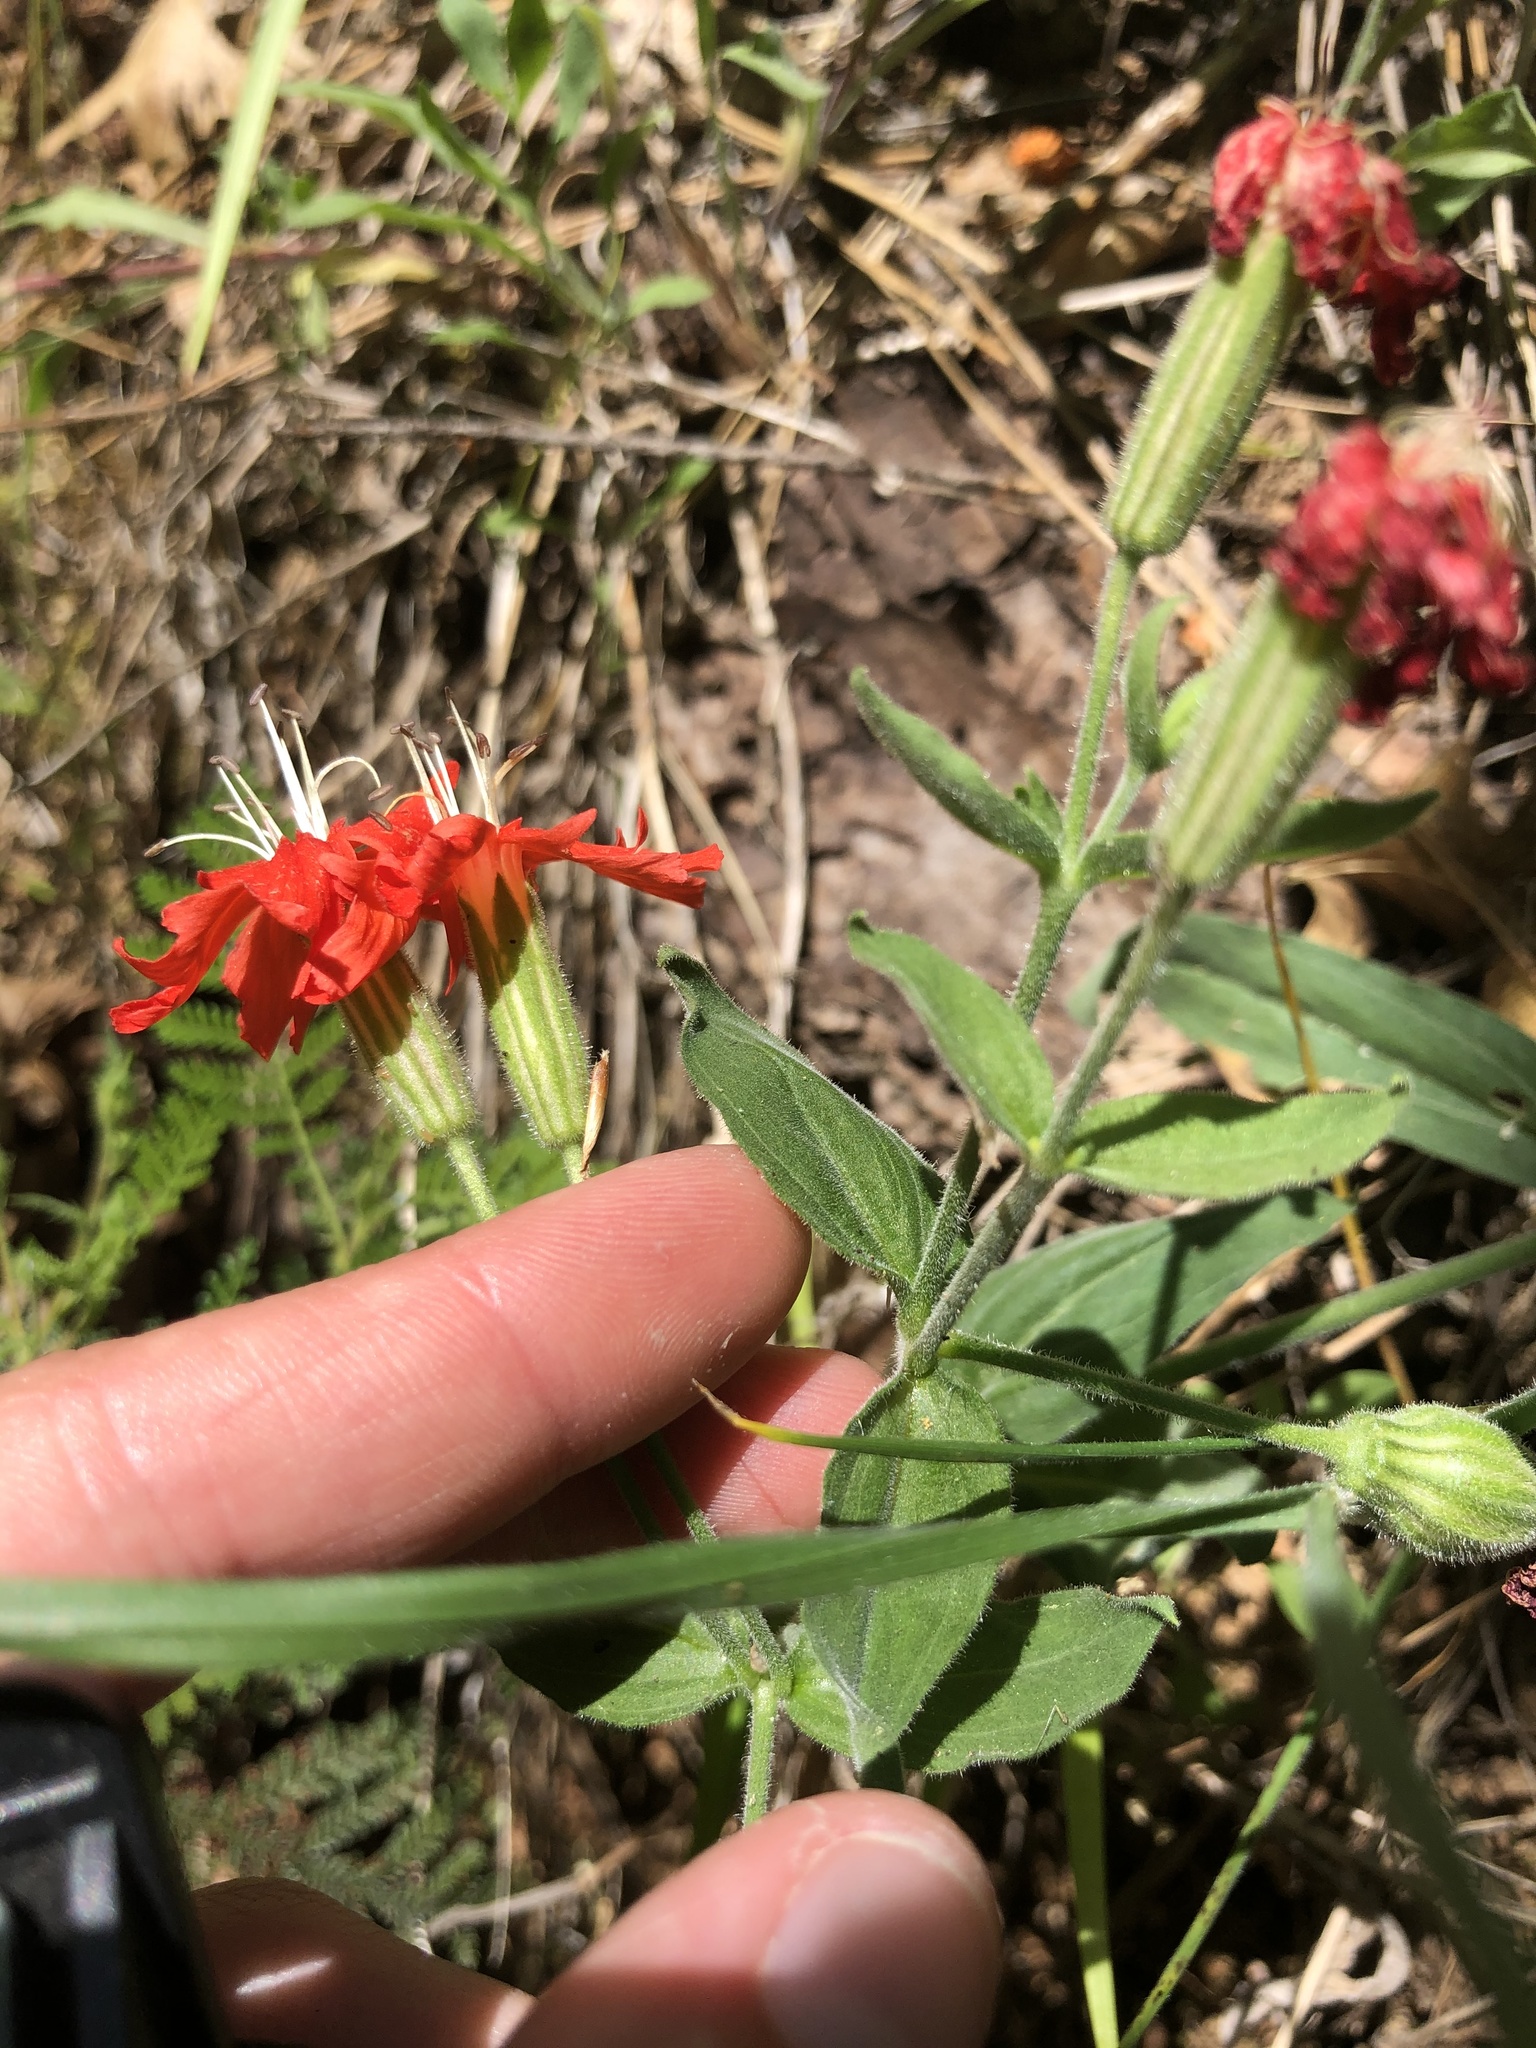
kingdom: Plantae
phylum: Tracheophyta
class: Magnoliopsida
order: Caryophyllales
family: Caryophyllaceae
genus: Silene
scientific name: Silene laciniata
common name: Indian-pink
